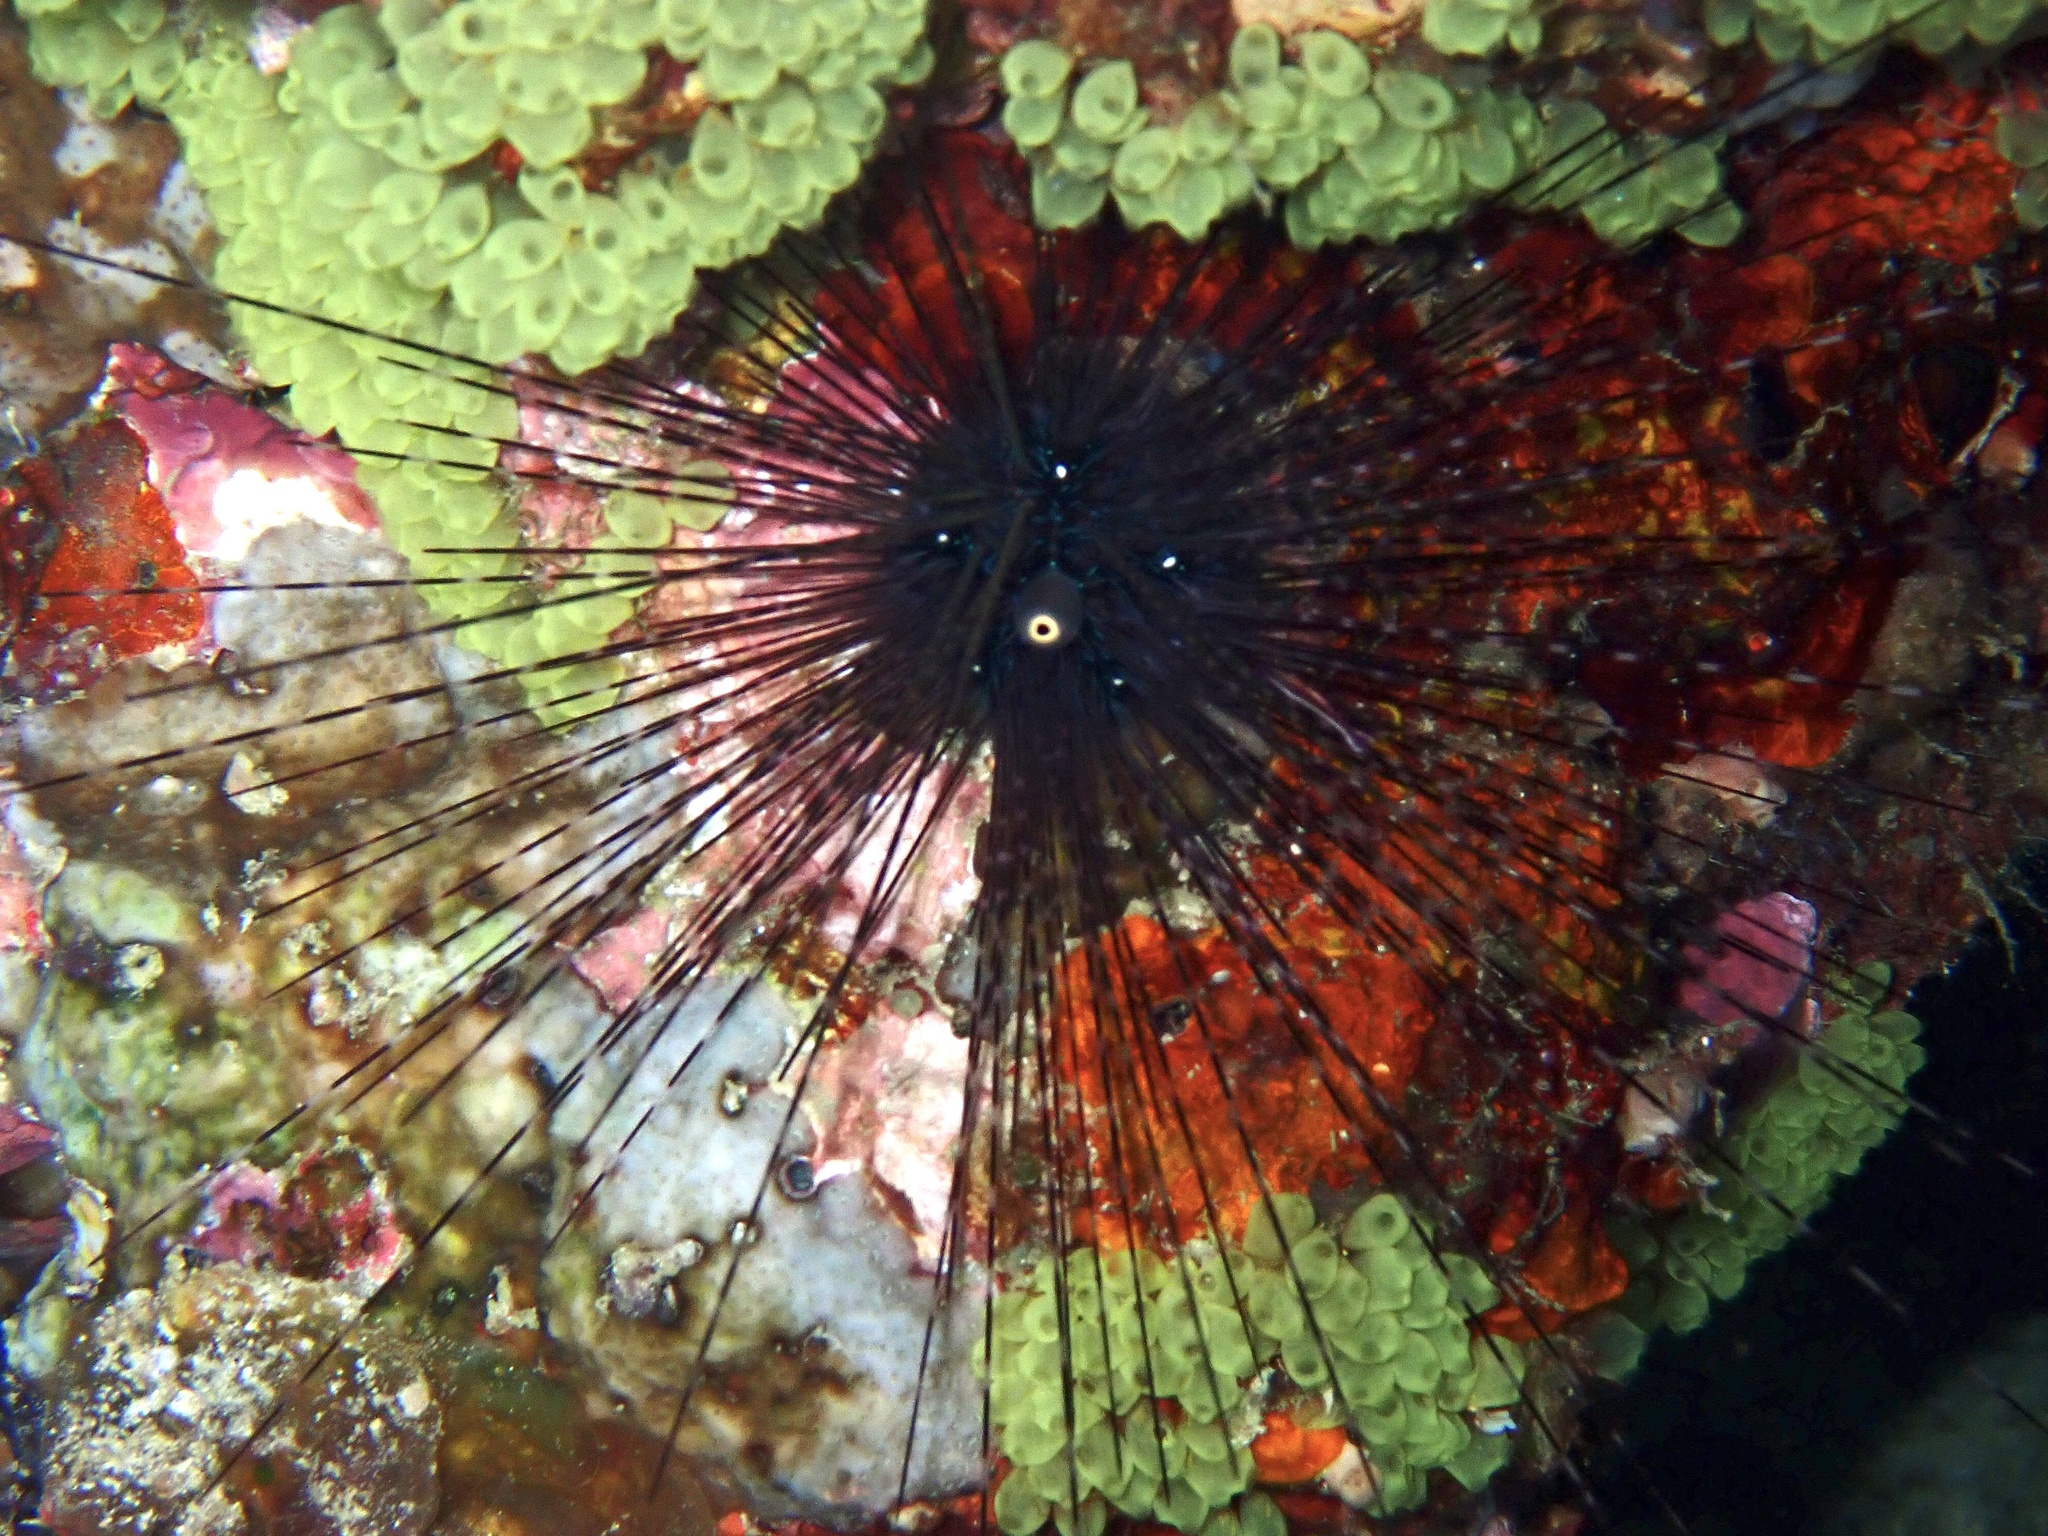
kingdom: Animalia
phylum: Echinodermata
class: Echinoidea
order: Diadematoida
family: Diadematidae
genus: Diadema
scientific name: Diadema setosum
